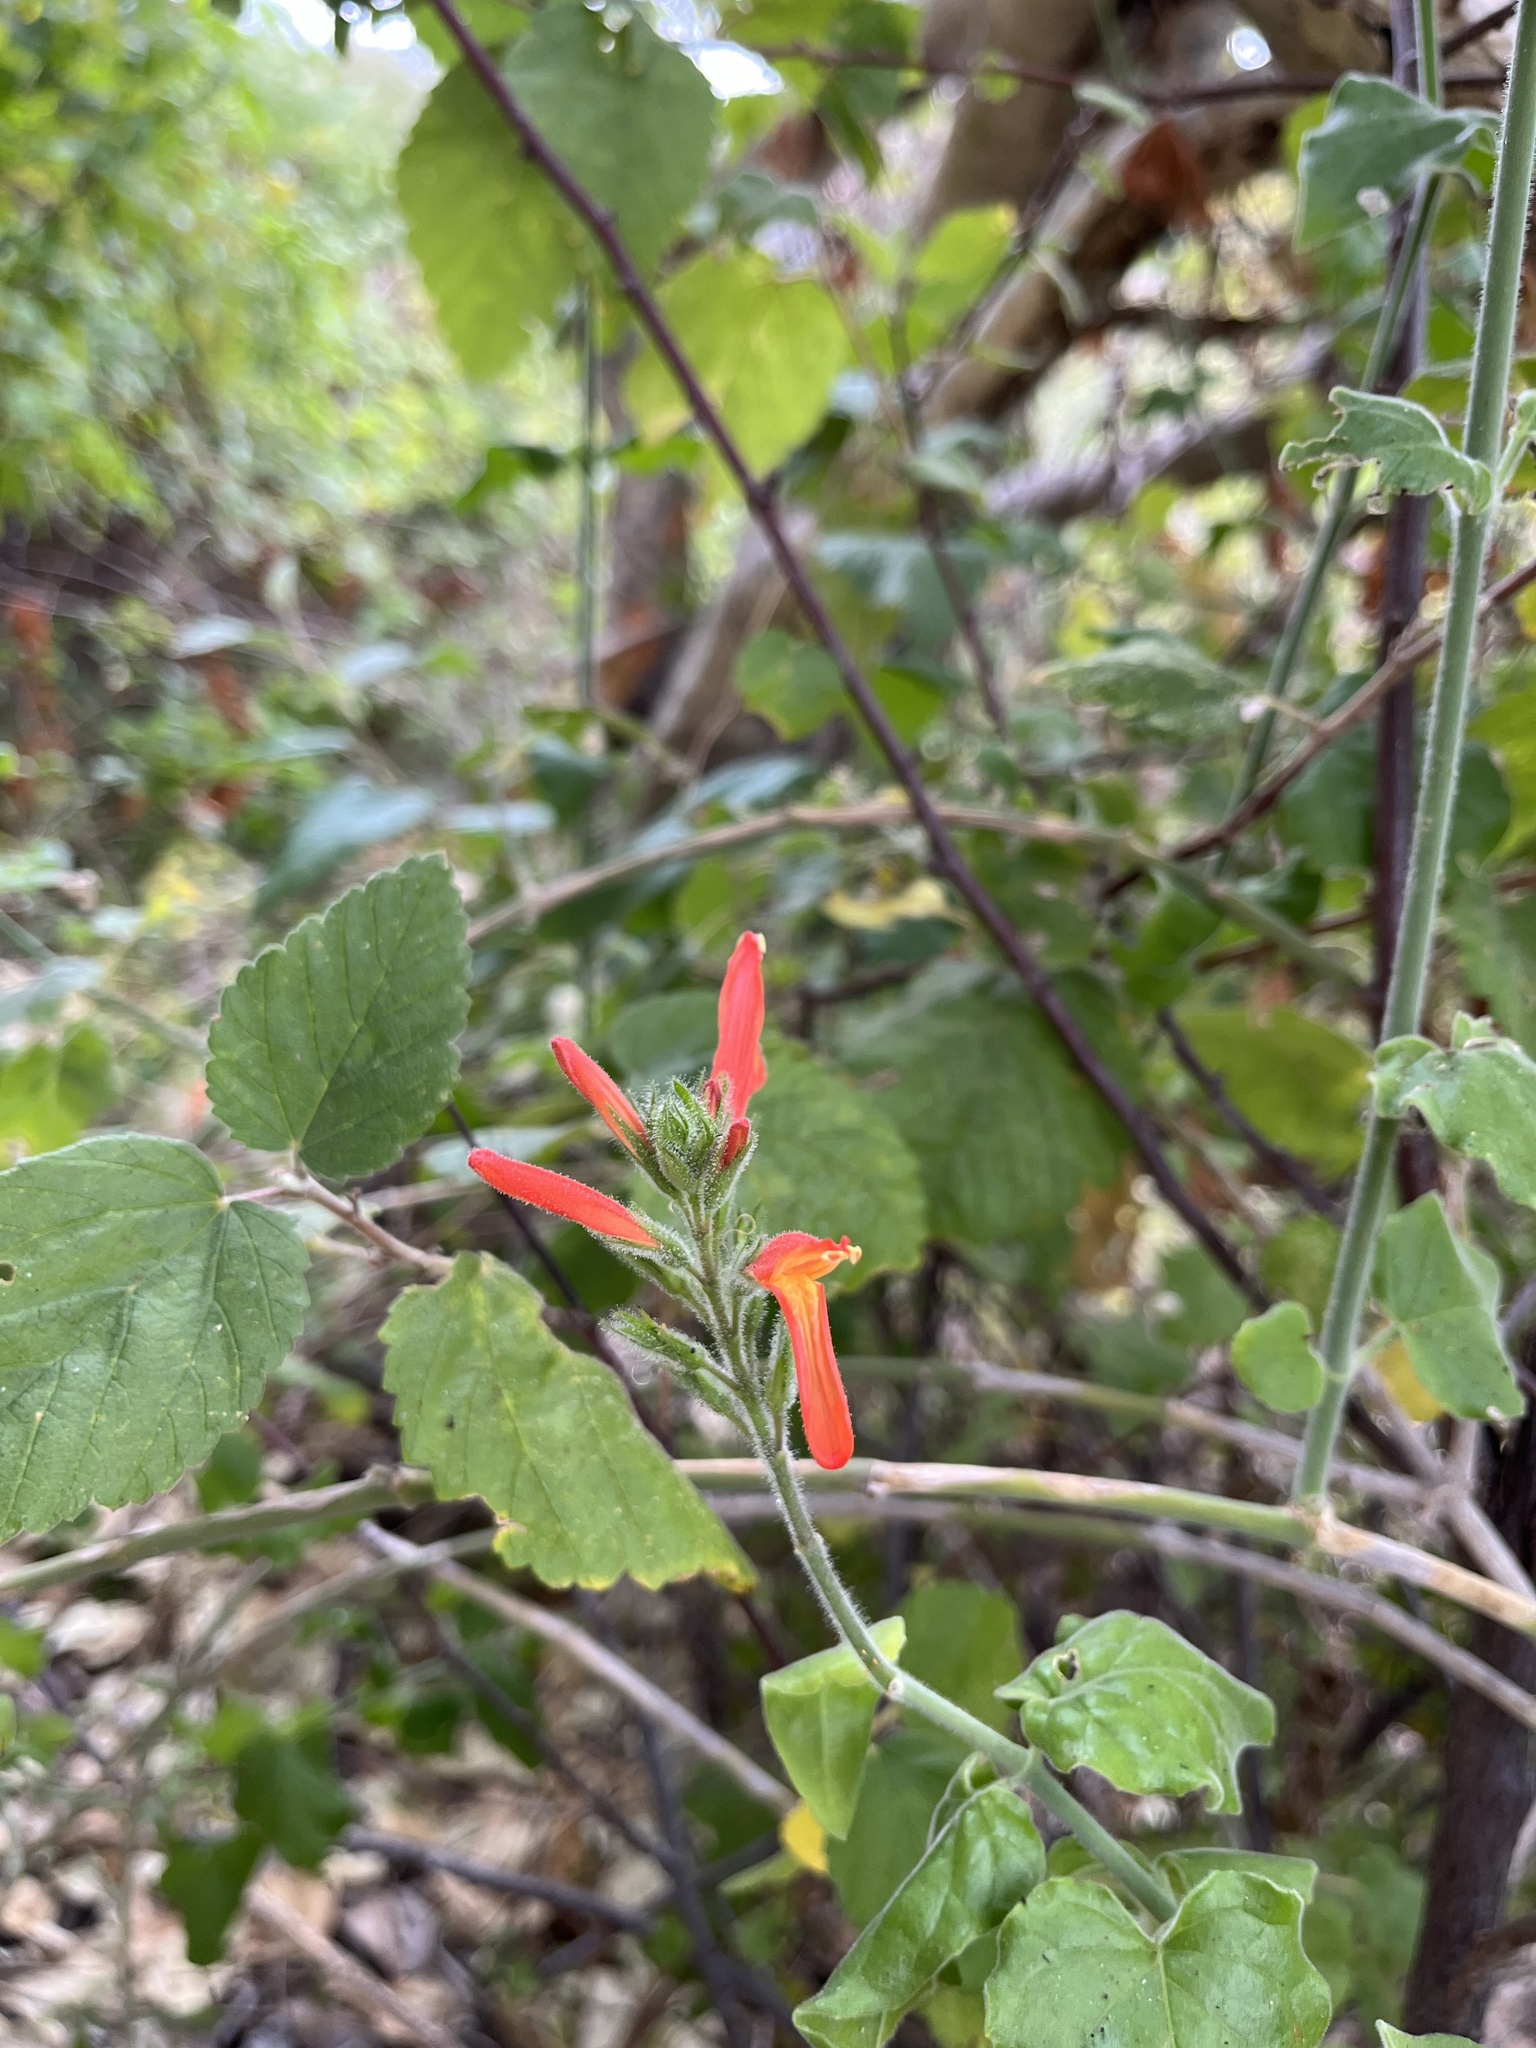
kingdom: Plantae
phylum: Tracheophyta
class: Magnoliopsida
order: Lamiales
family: Acanthaceae
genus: Justicia
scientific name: Justicia californica
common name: Chuparosa-honeysuckle
